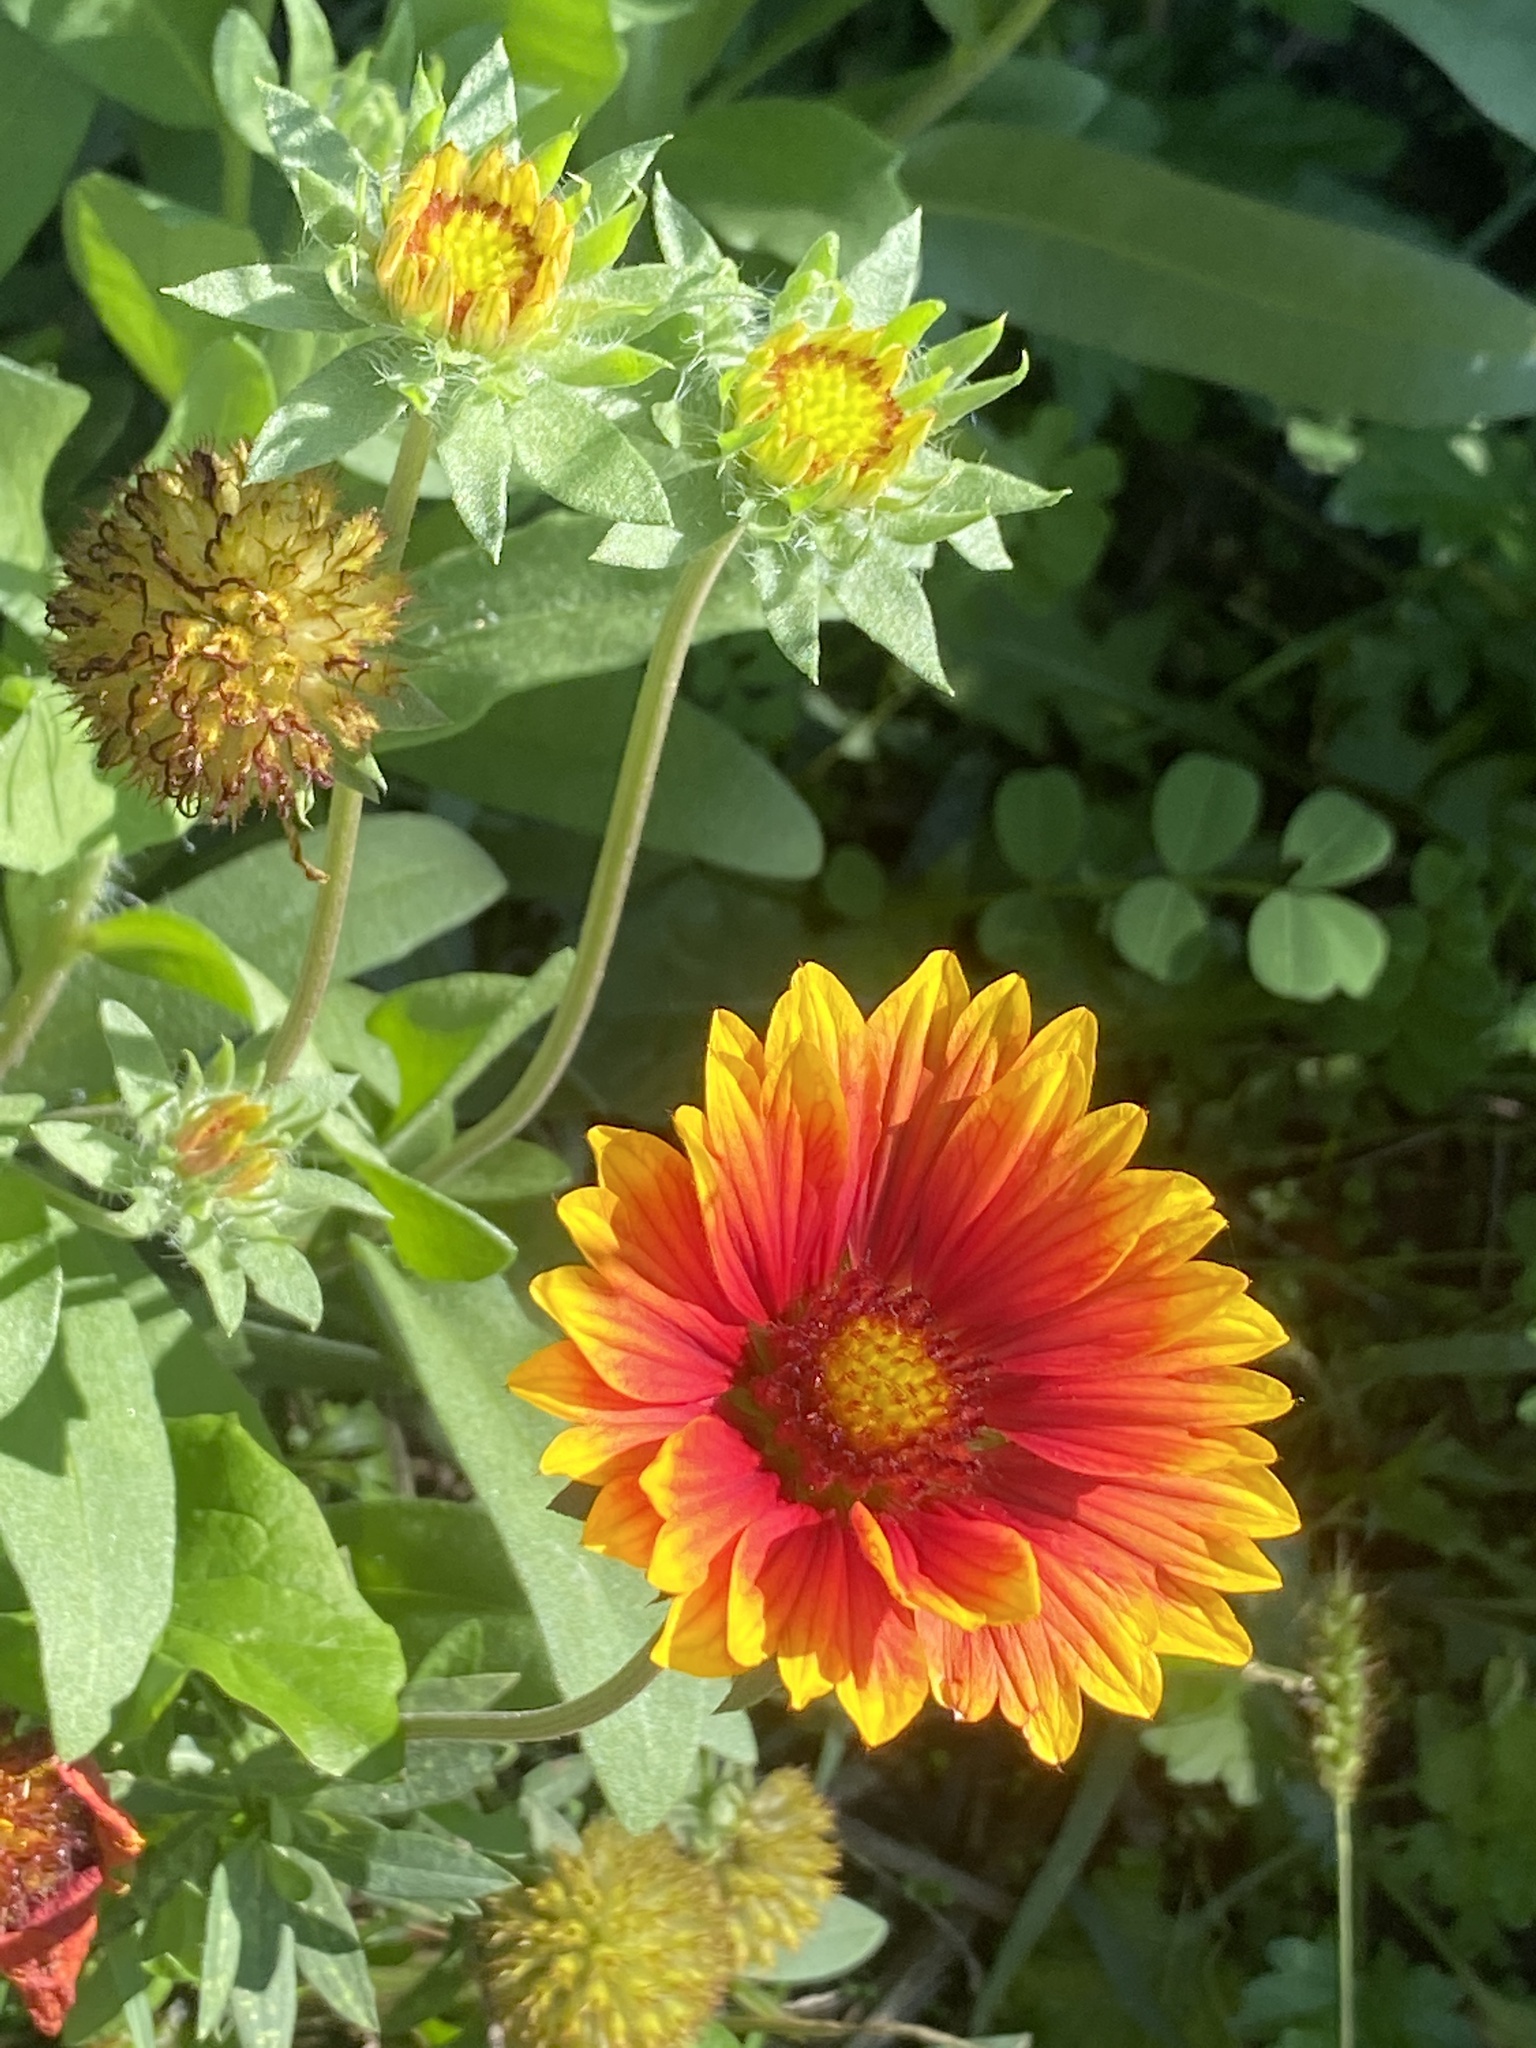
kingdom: Plantae
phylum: Tracheophyta
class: Magnoliopsida
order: Asterales
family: Asteraceae
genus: Gaillardia
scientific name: Gaillardia pulchella
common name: Firewheel
